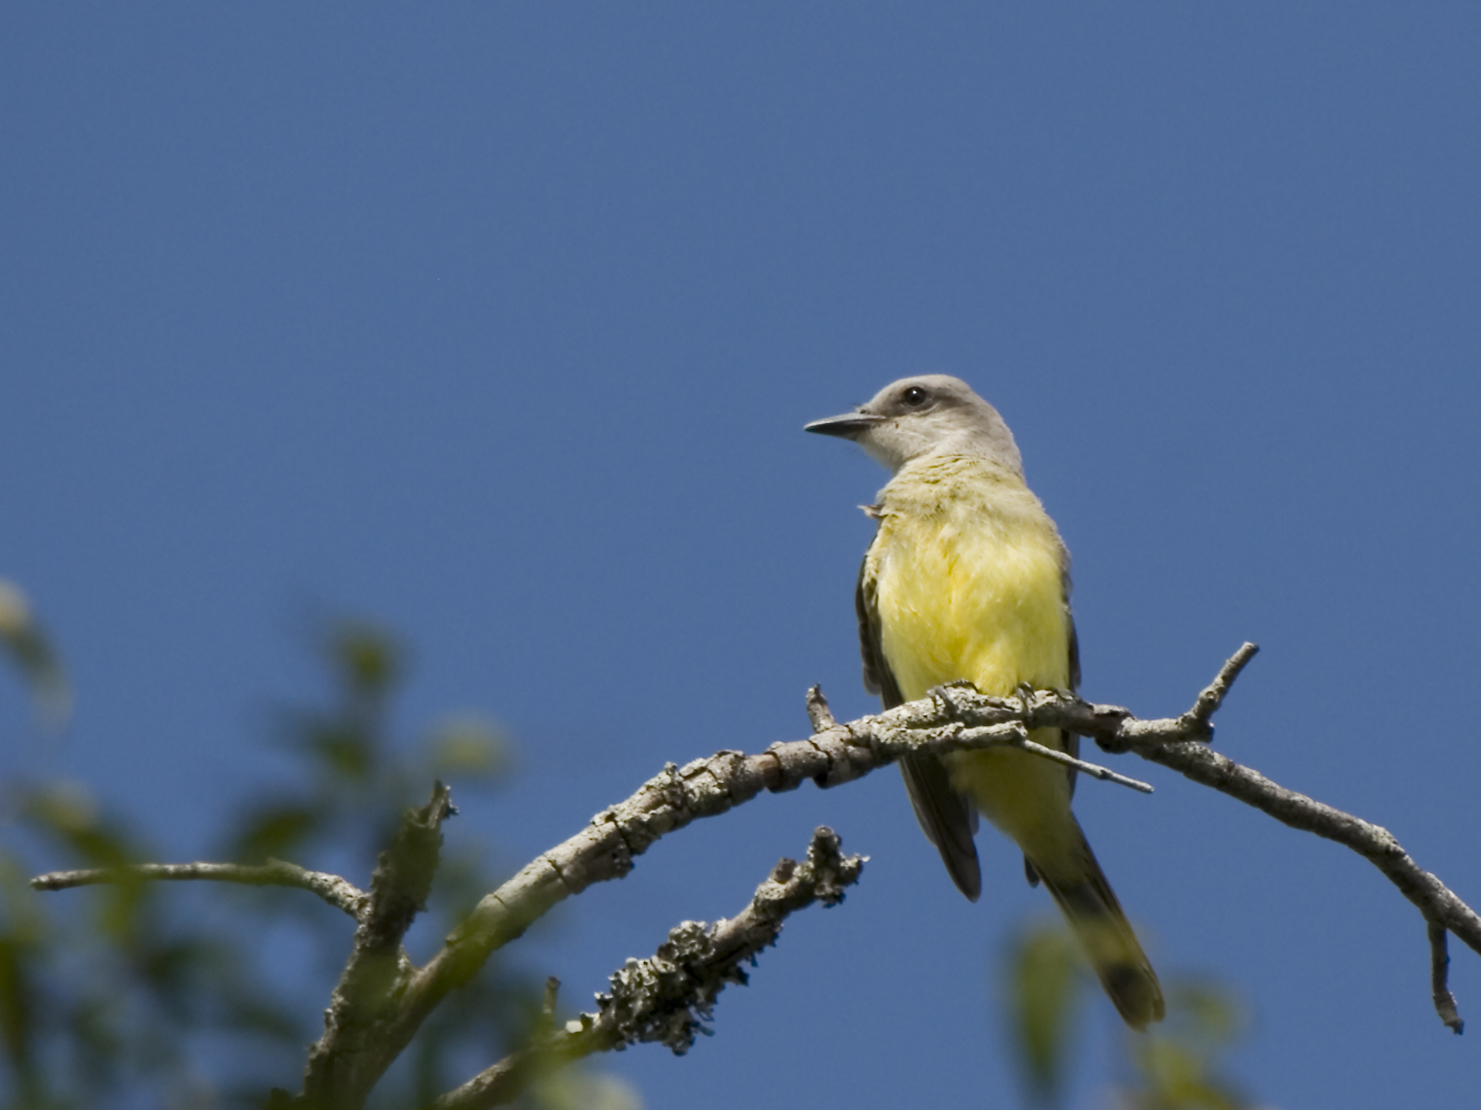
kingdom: Animalia
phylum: Chordata
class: Aves
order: Passeriformes
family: Tyrannidae
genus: Tyrannus
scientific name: Tyrannus melancholicus
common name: Tropical kingbird
